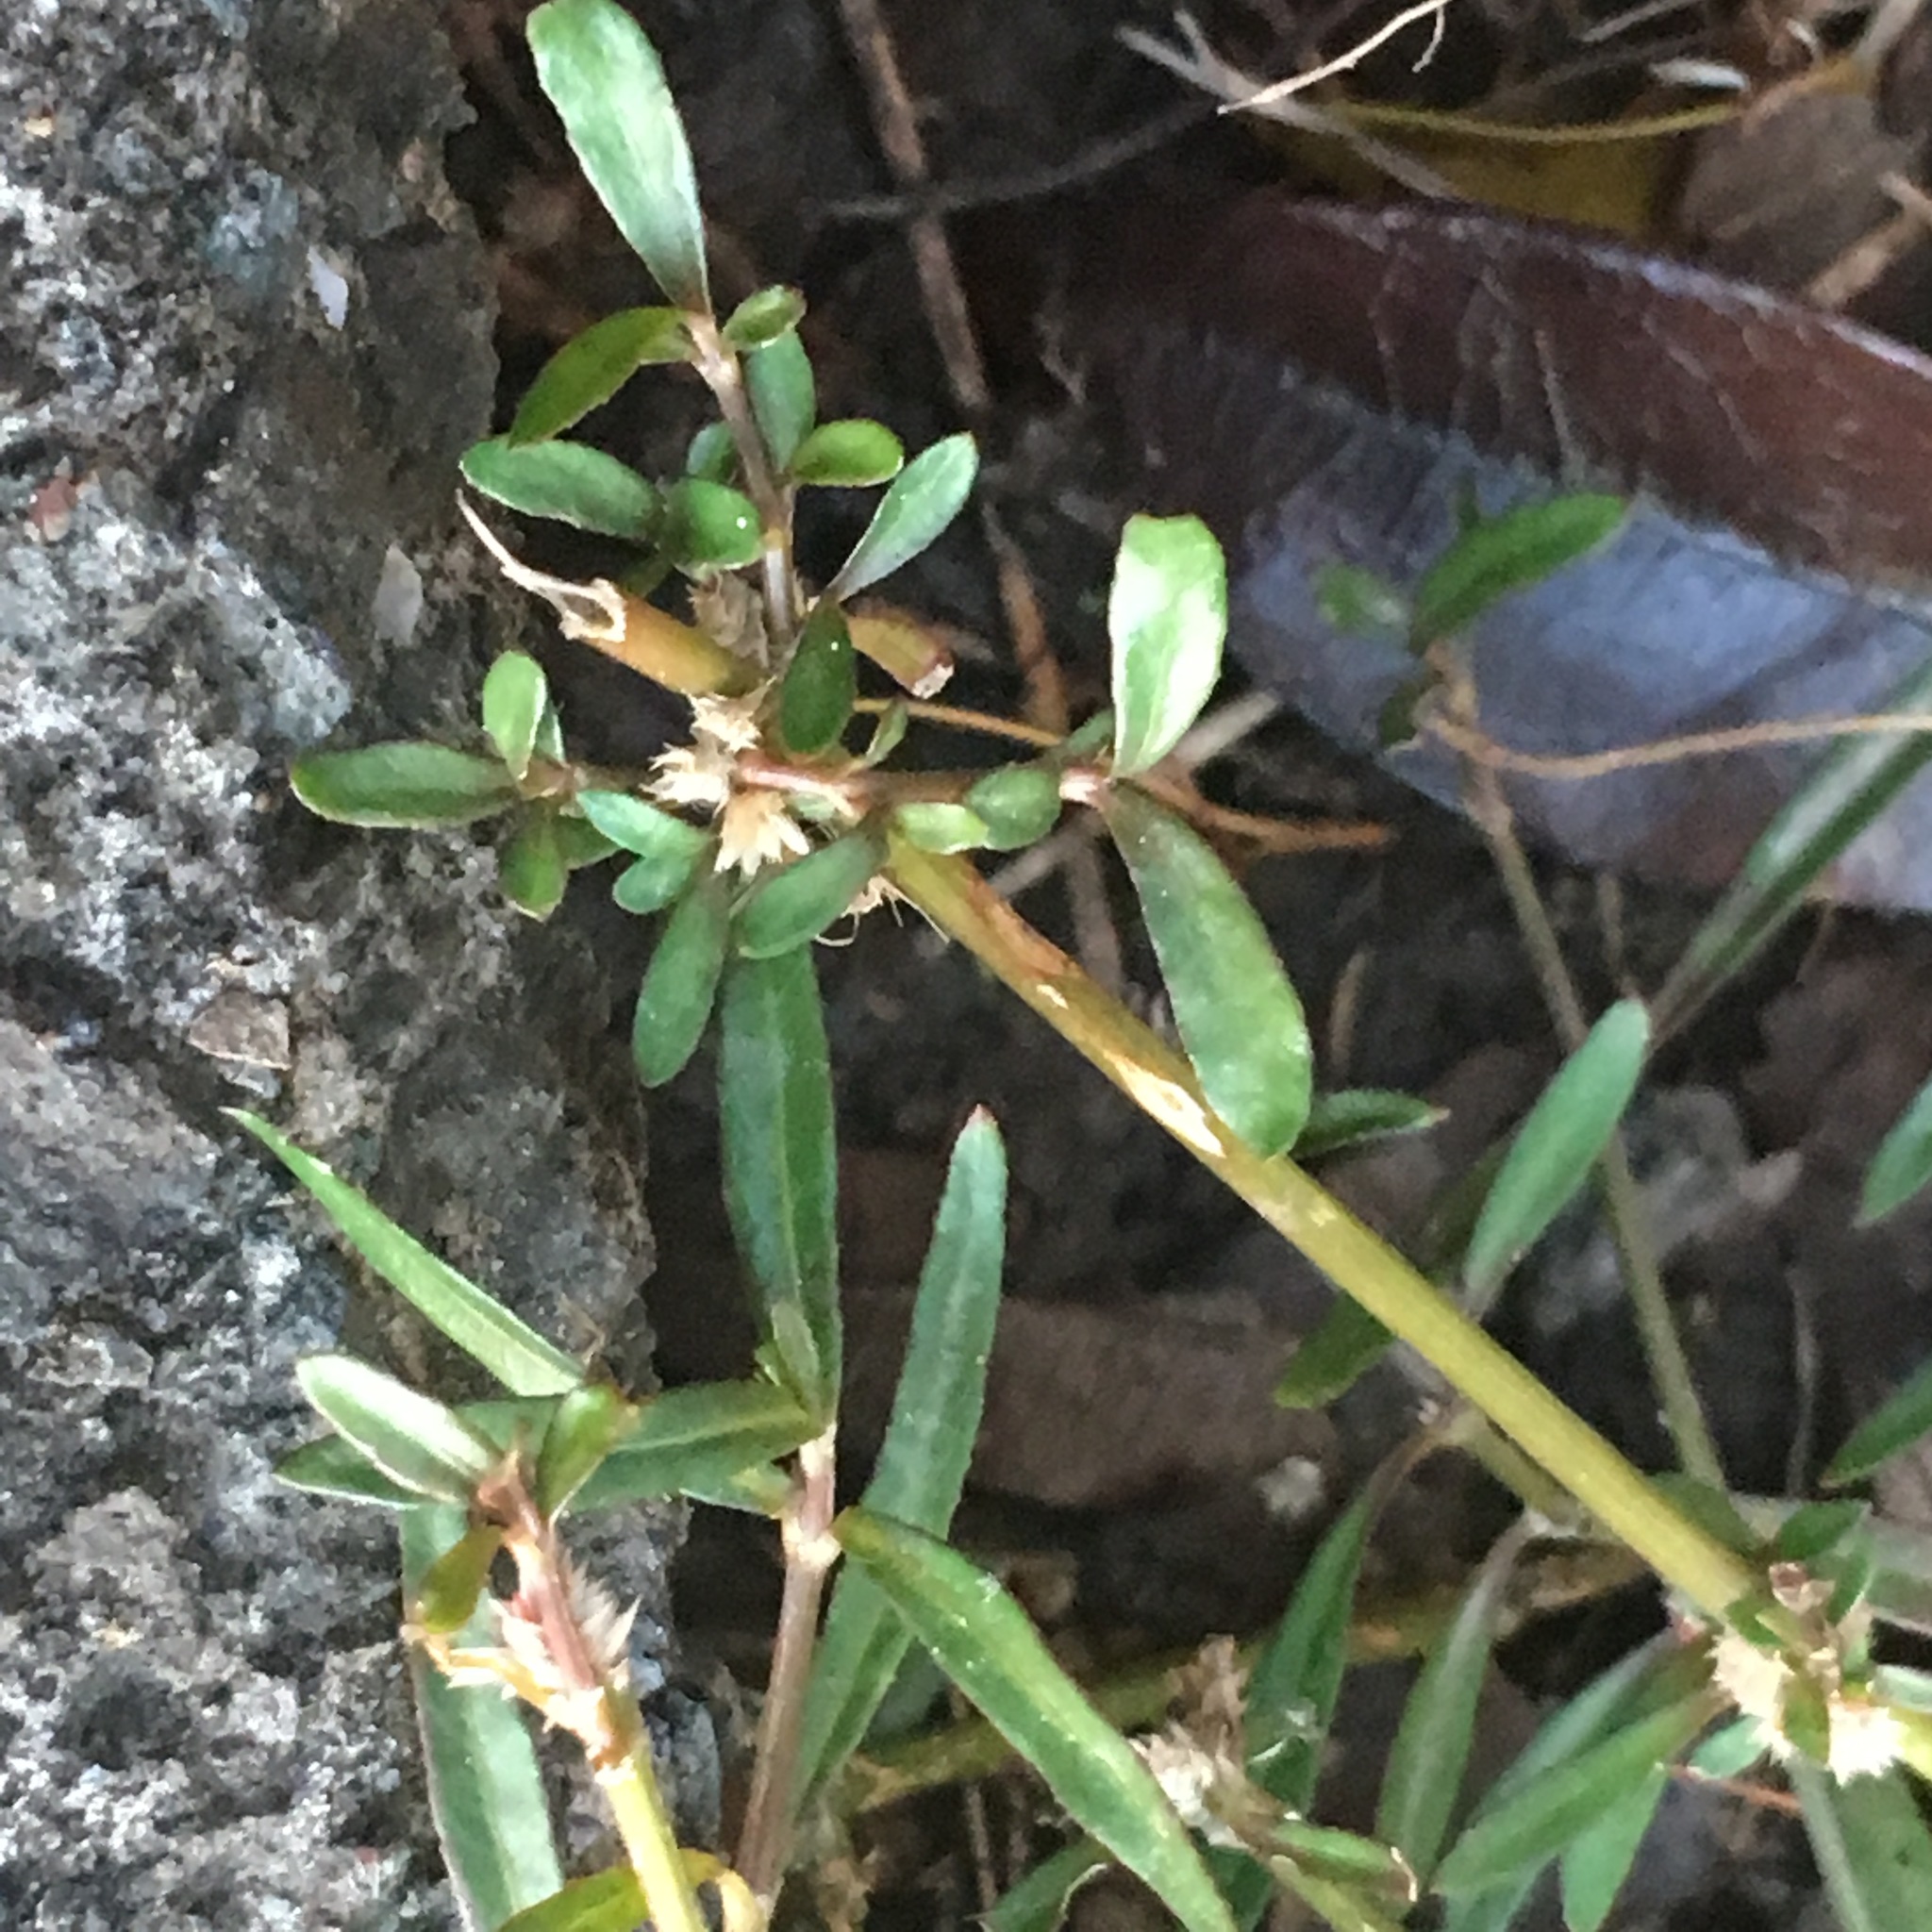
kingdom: Plantae
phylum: Tracheophyta
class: Magnoliopsida
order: Caryophyllales
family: Amaranthaceae
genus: Alternanthera
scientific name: Alternanthera nahui
